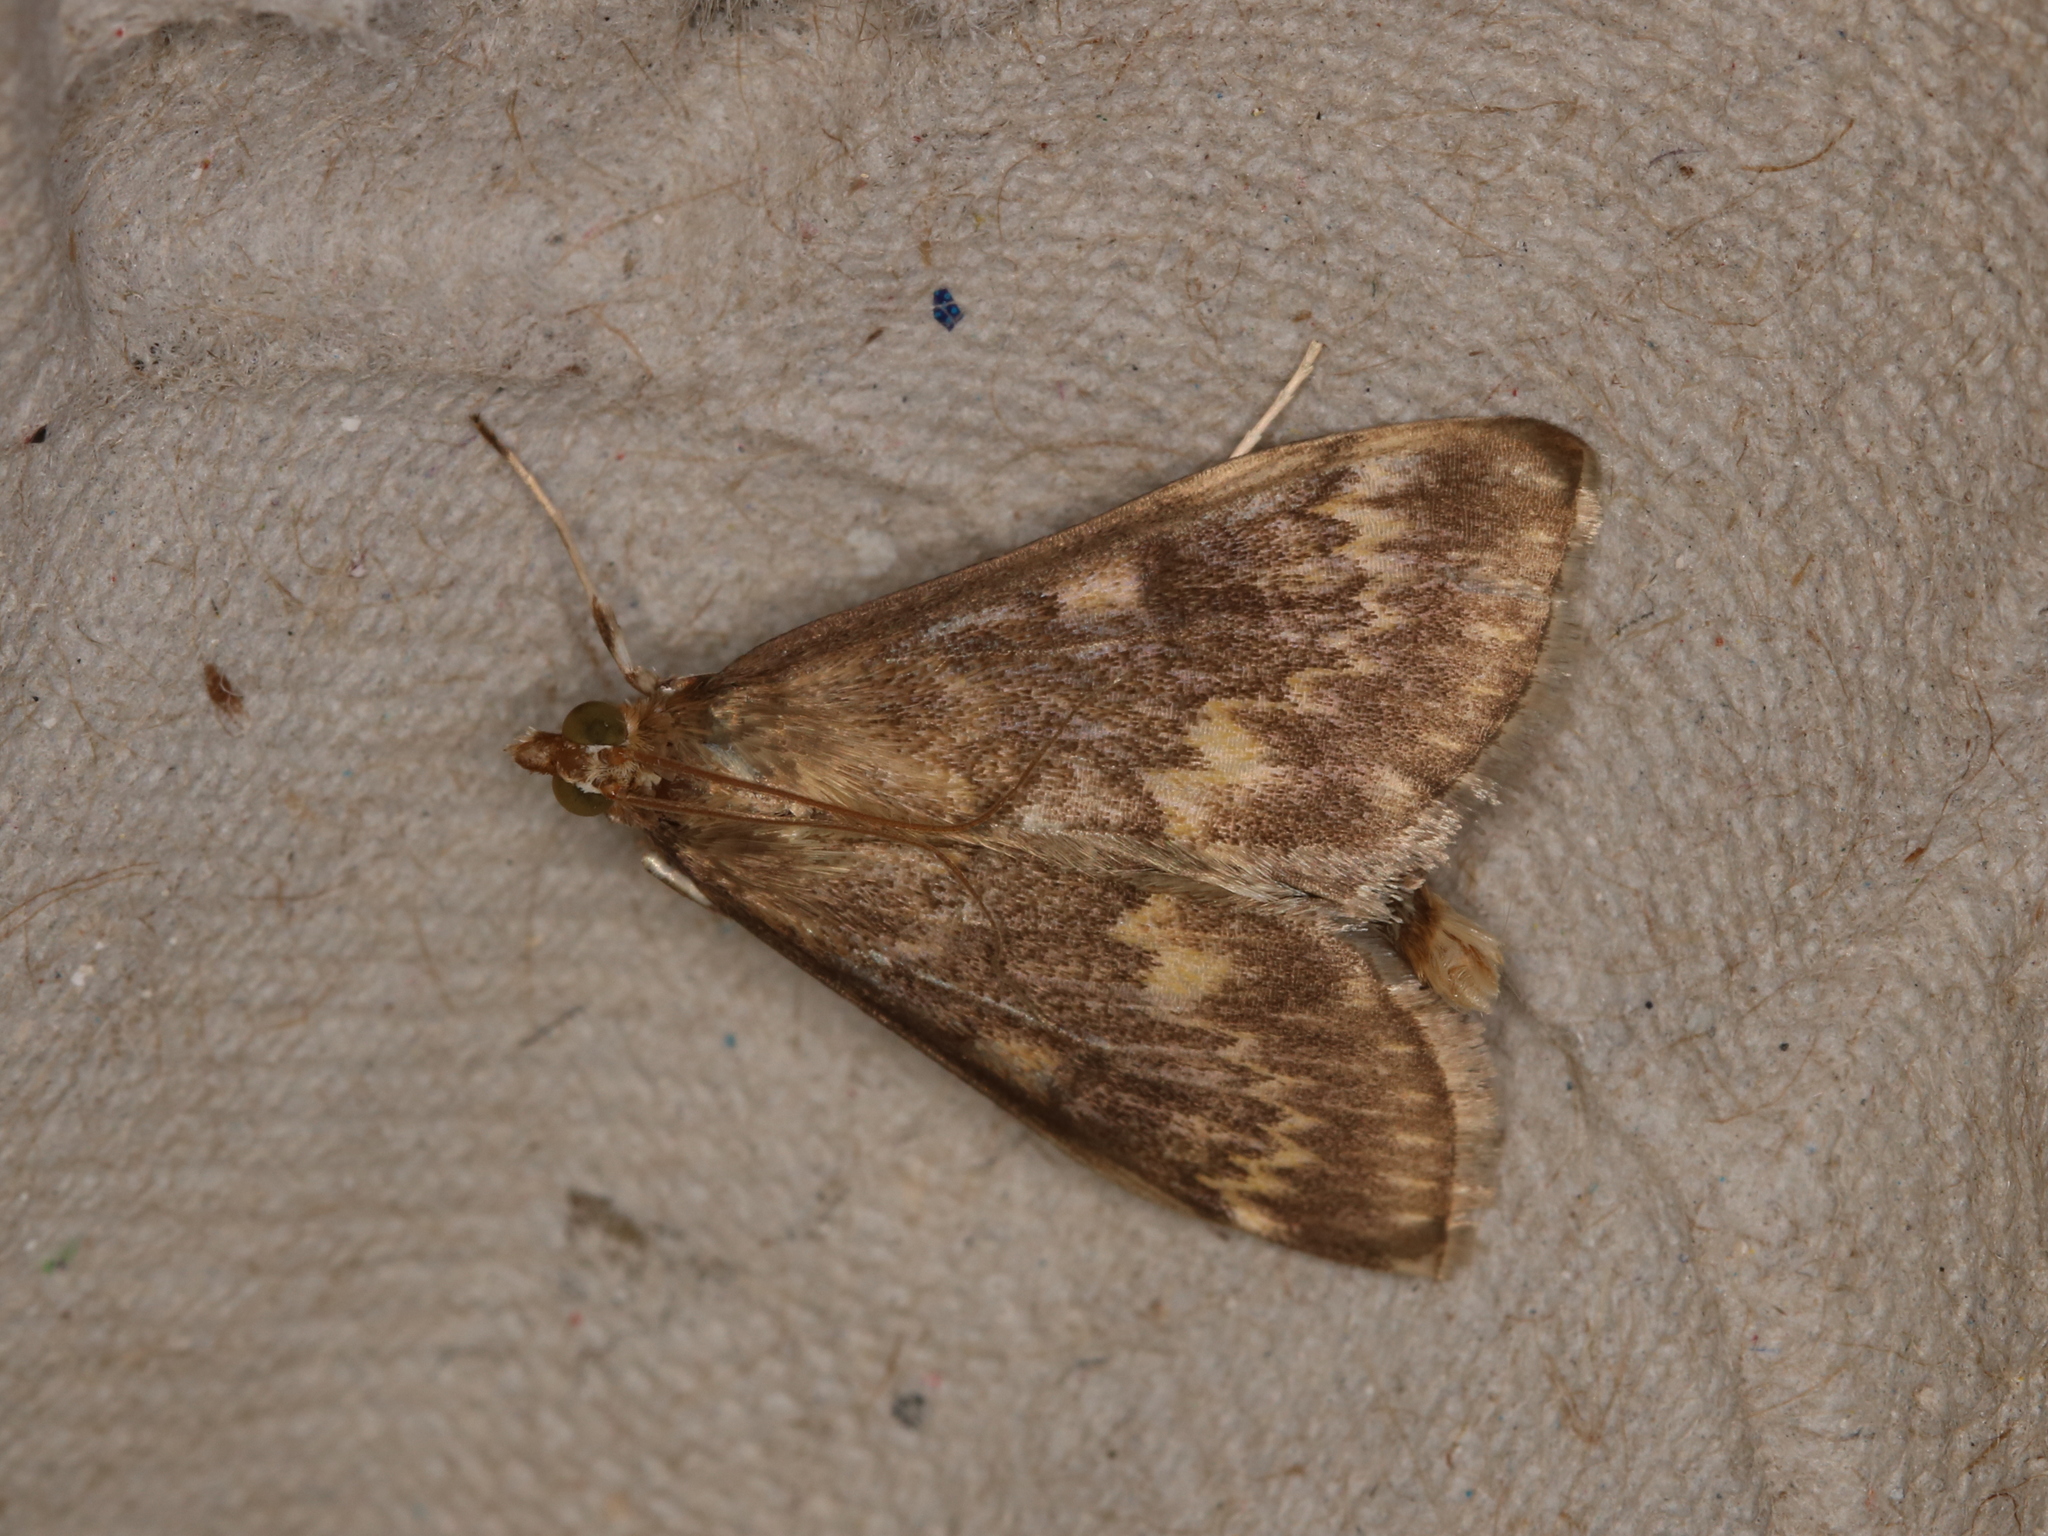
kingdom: Animalia
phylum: Arthropoda
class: Insecta
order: Lepidoptera
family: Crambidae
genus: Ostrinia
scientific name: Ostrinia nubilalis
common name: European corn borer
